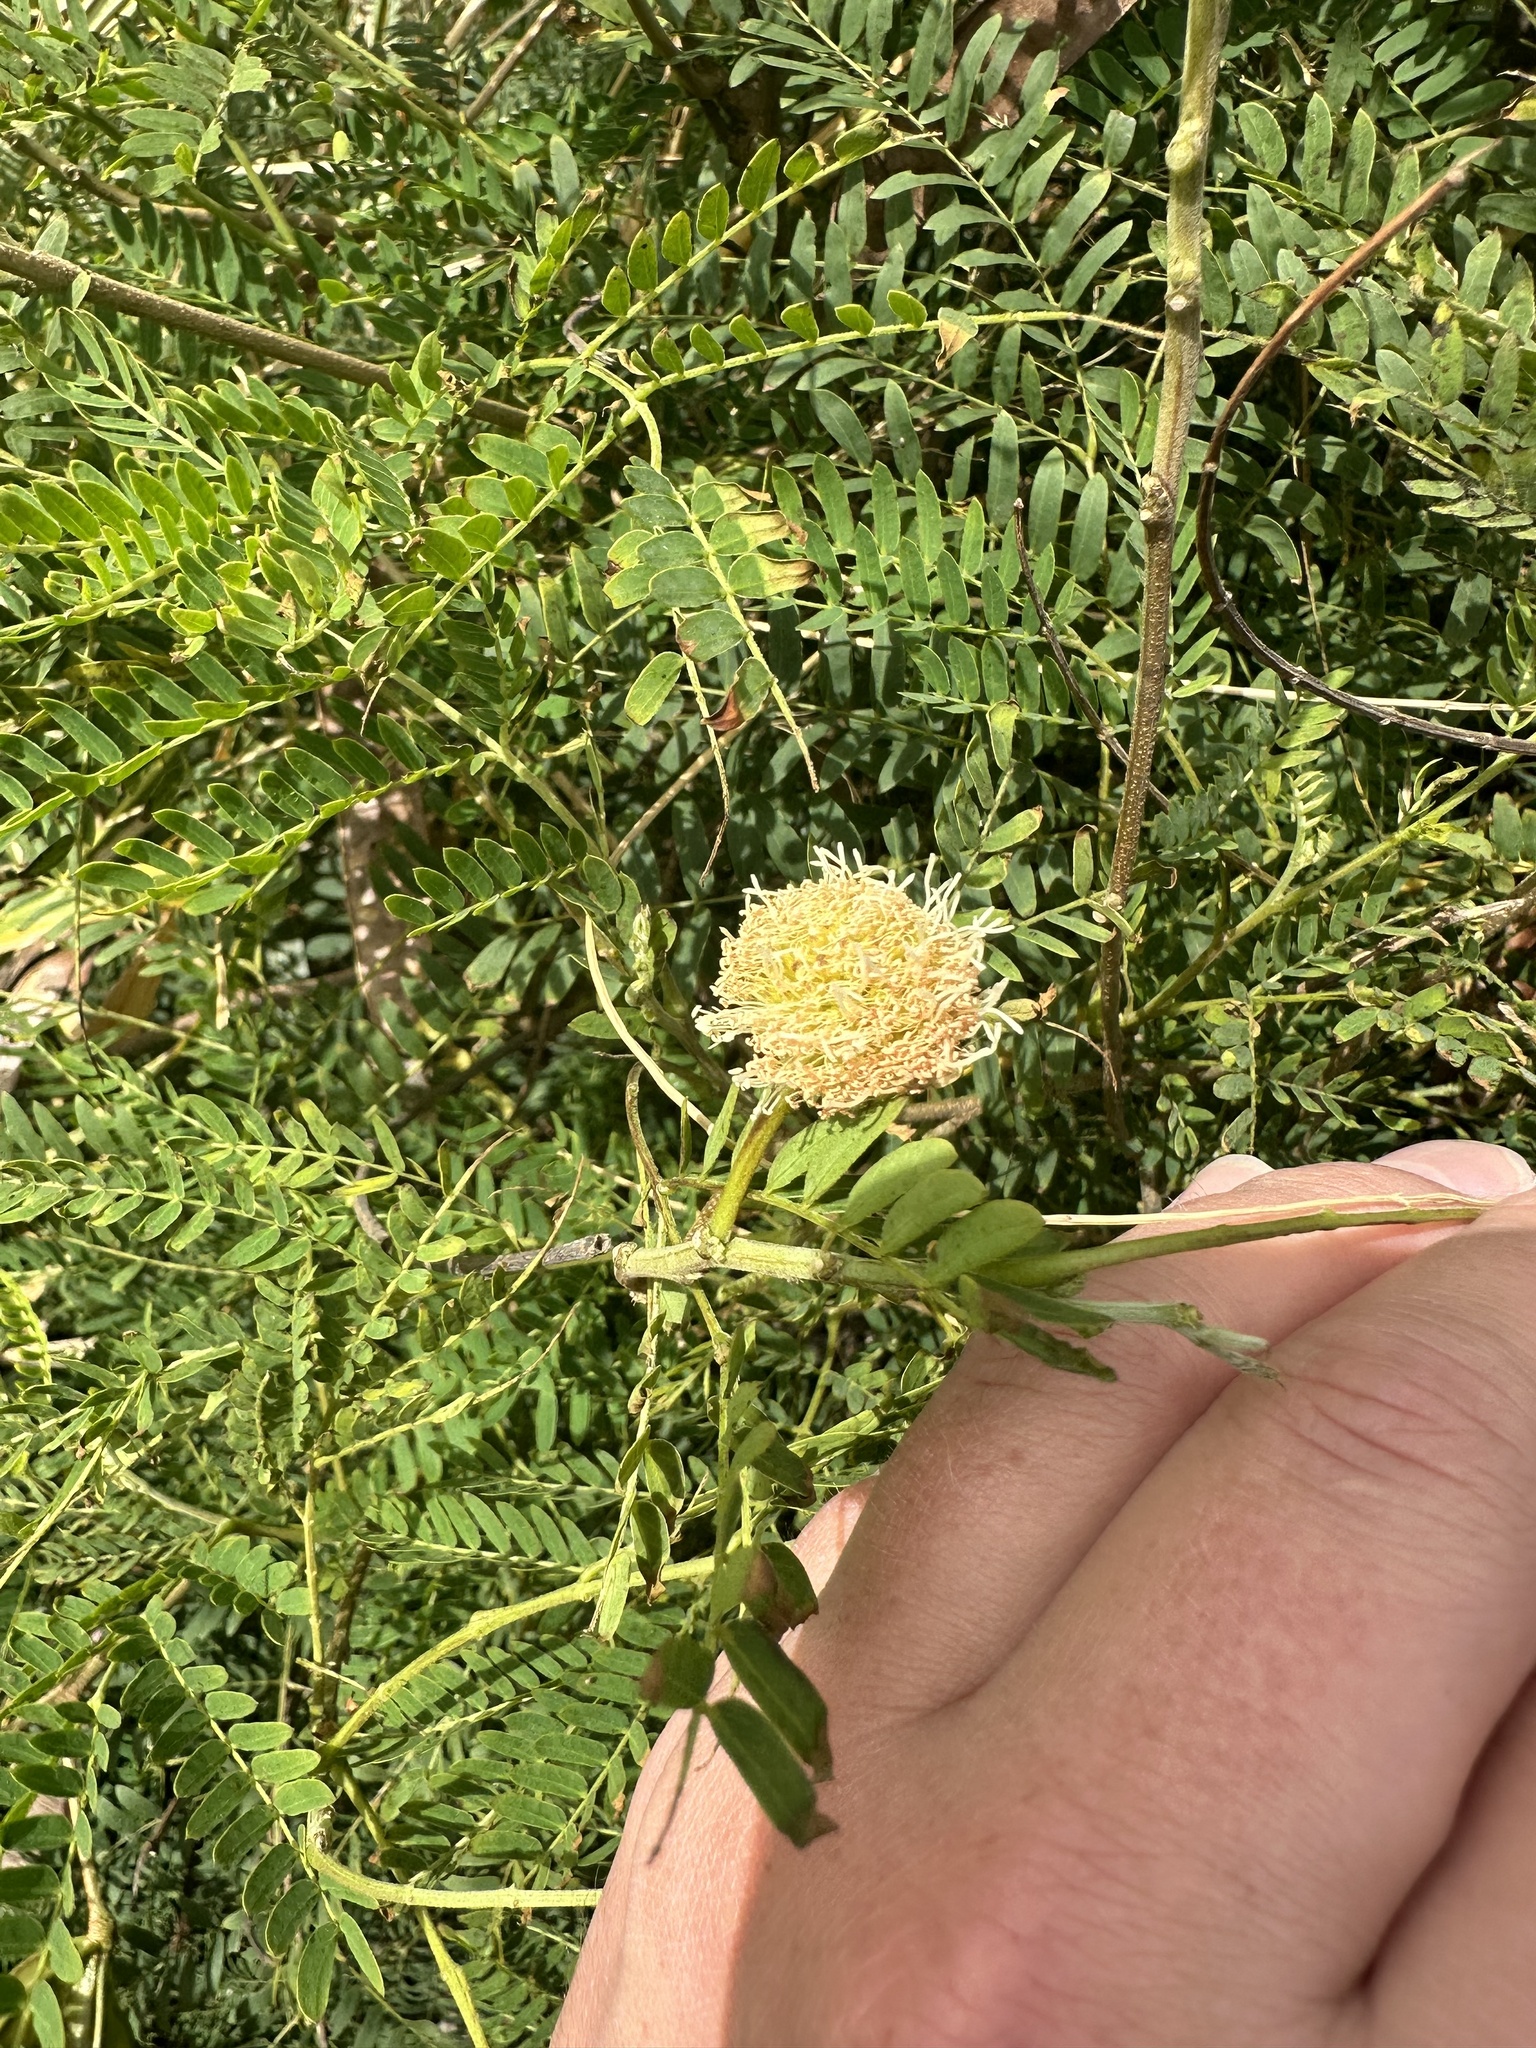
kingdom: Plantae
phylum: Tracheophyta
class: Magnoliopsida
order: Fabales
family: Fabaceae
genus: Leucaena
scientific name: Leucaena leucocephala
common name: White leadtree
